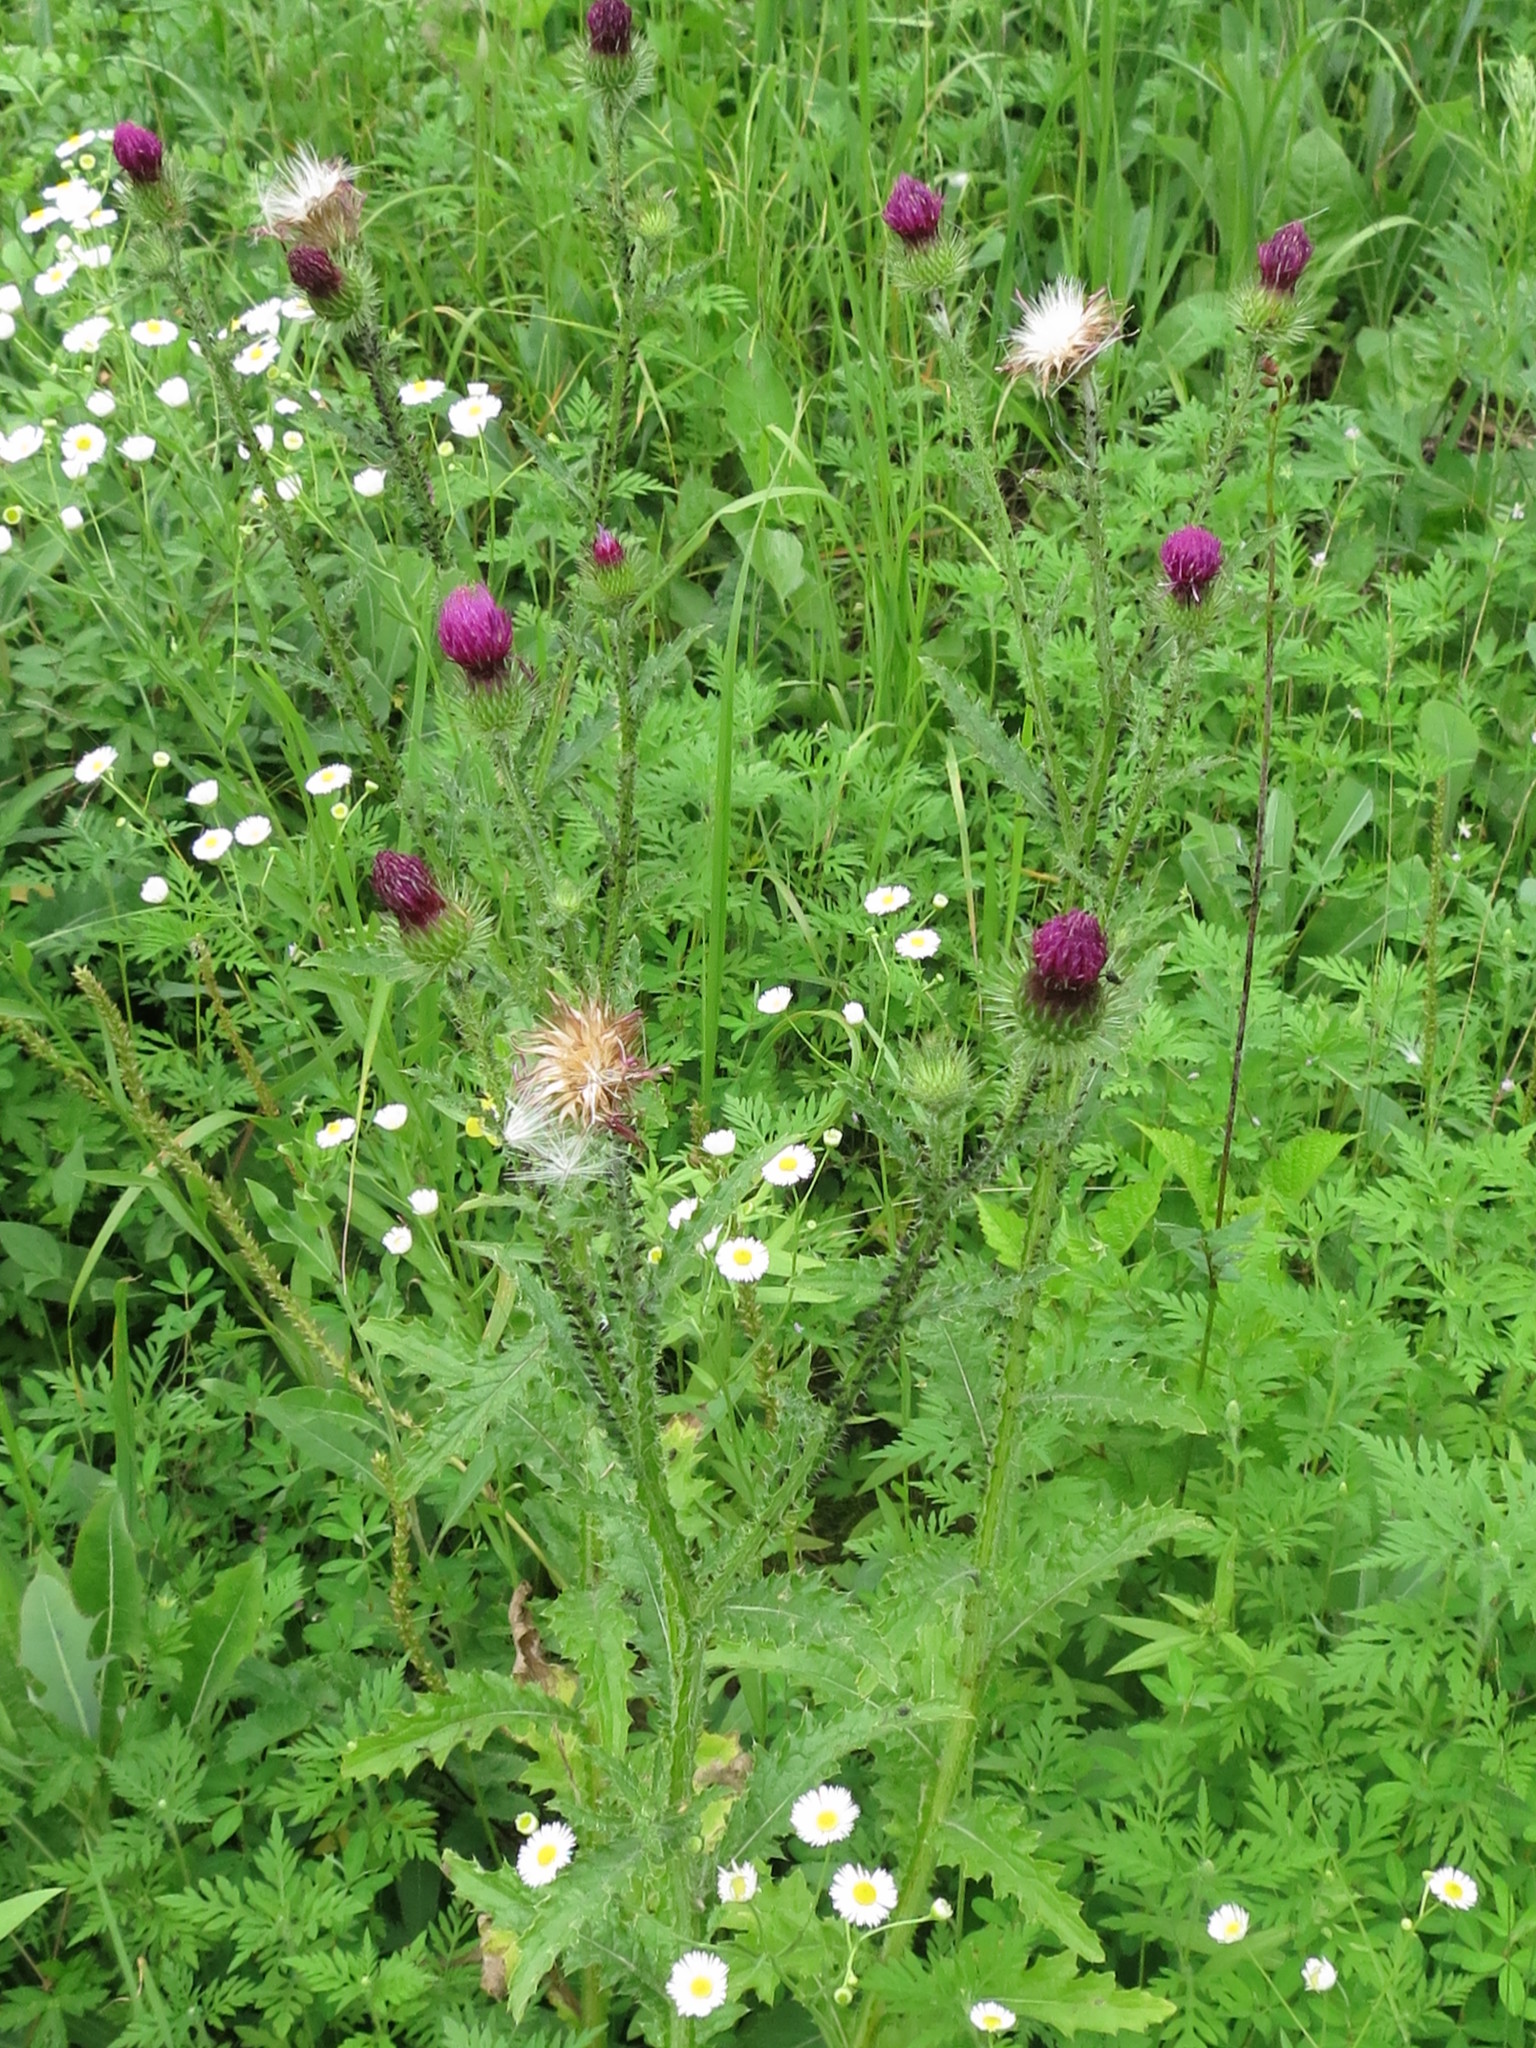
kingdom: Plantae
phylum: Tracheophyta
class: Magnoliopsida
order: Asterales
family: Asteraceae
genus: Carduus
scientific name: Carduus crispus
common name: Welted thistle
